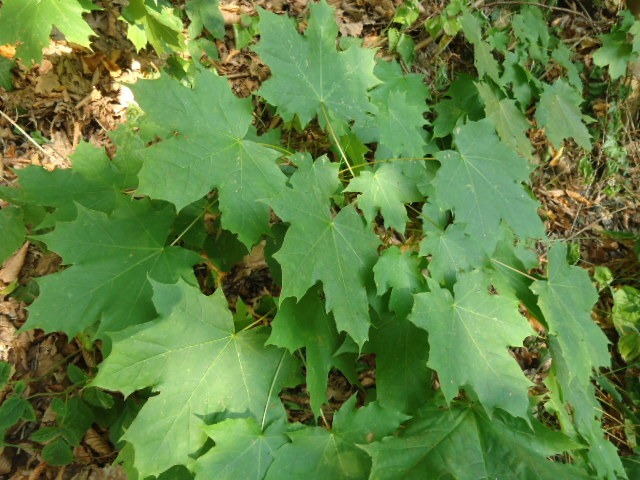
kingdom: Plantae
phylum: Tracheophyta
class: Magnoliopsida
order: Sapindales
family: Sapindaceae
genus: Acer
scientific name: Acer platanoides
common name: Norway maple
